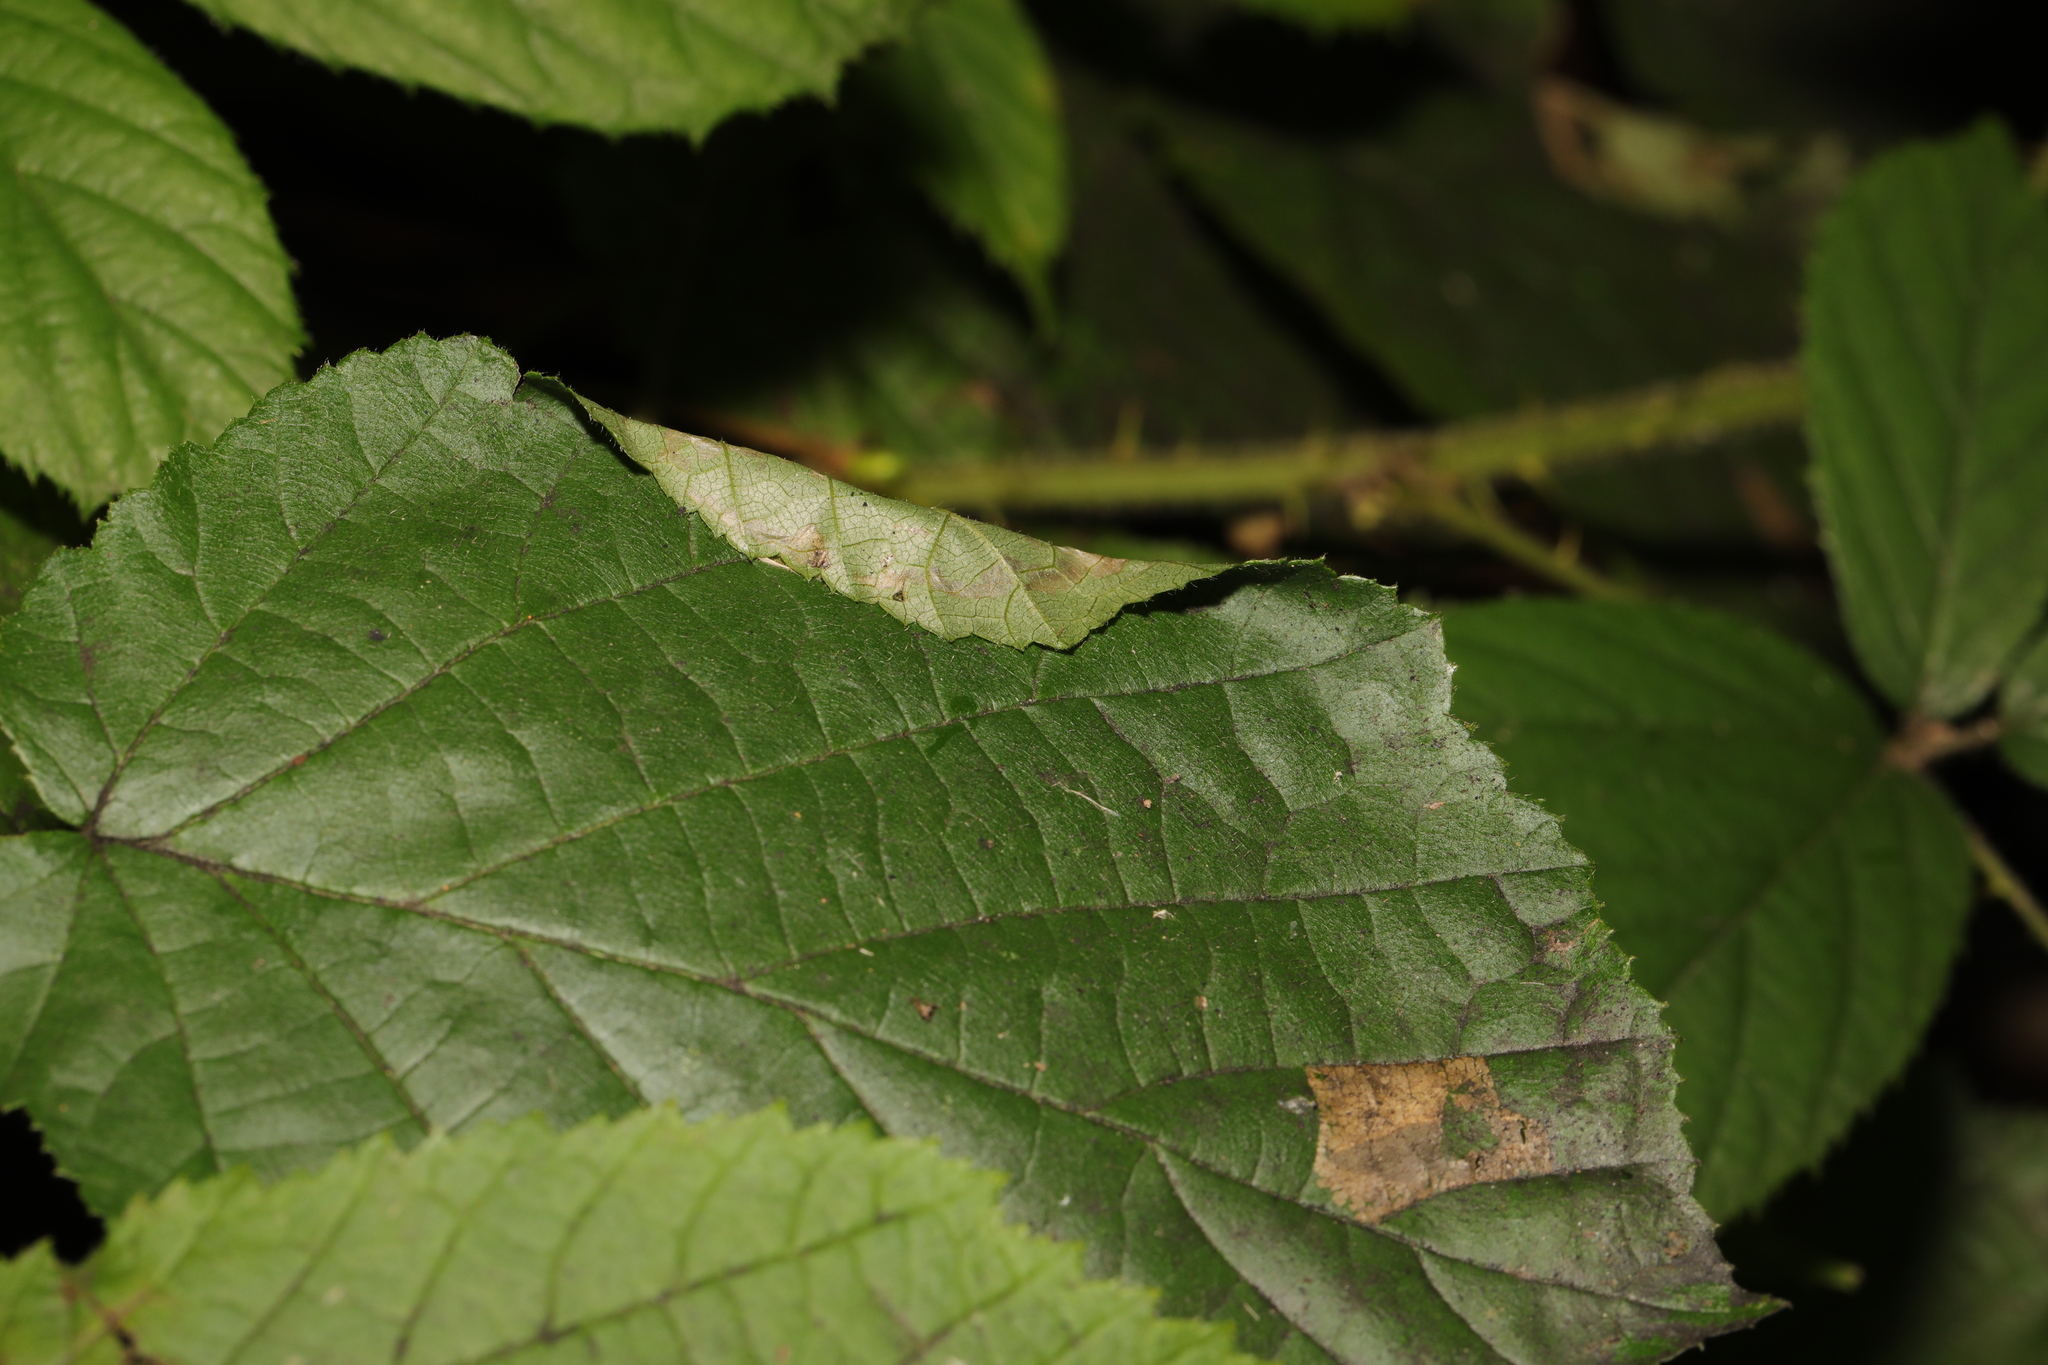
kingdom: Animalia
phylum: Arthropoda
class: Insecta
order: Lepidoptera
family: Gracillariidae
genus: Parornix
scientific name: Parornix devoniella
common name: Hazel slender
